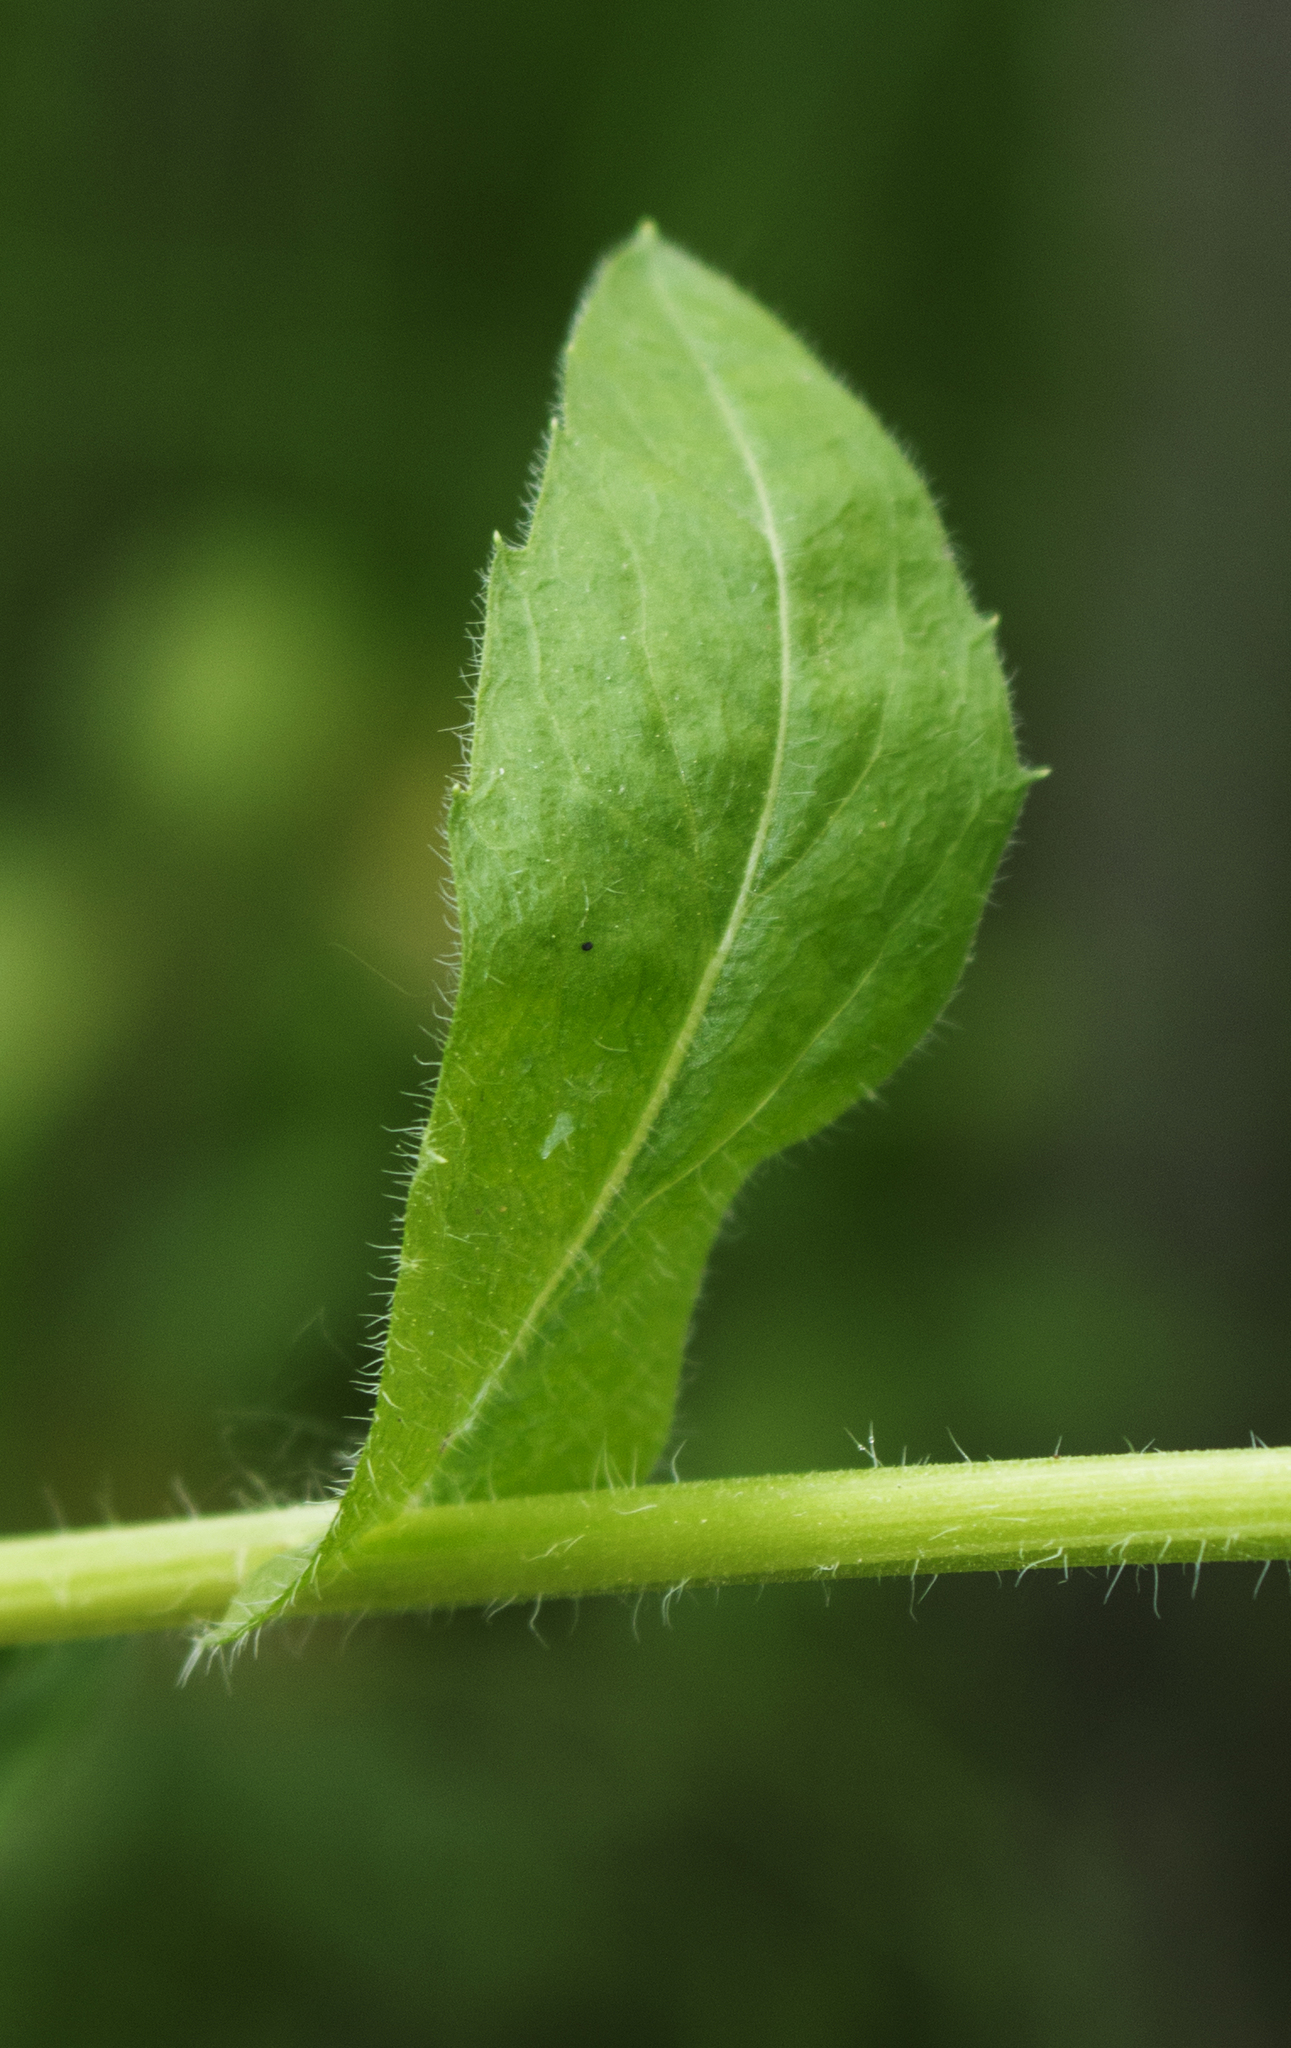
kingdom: Plantae
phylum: Tracheophyta
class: Magnoliopsida
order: Asterales
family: Asteraceae
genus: Erigeron
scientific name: Erigeron philadelphicus
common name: Robin's-plantain
